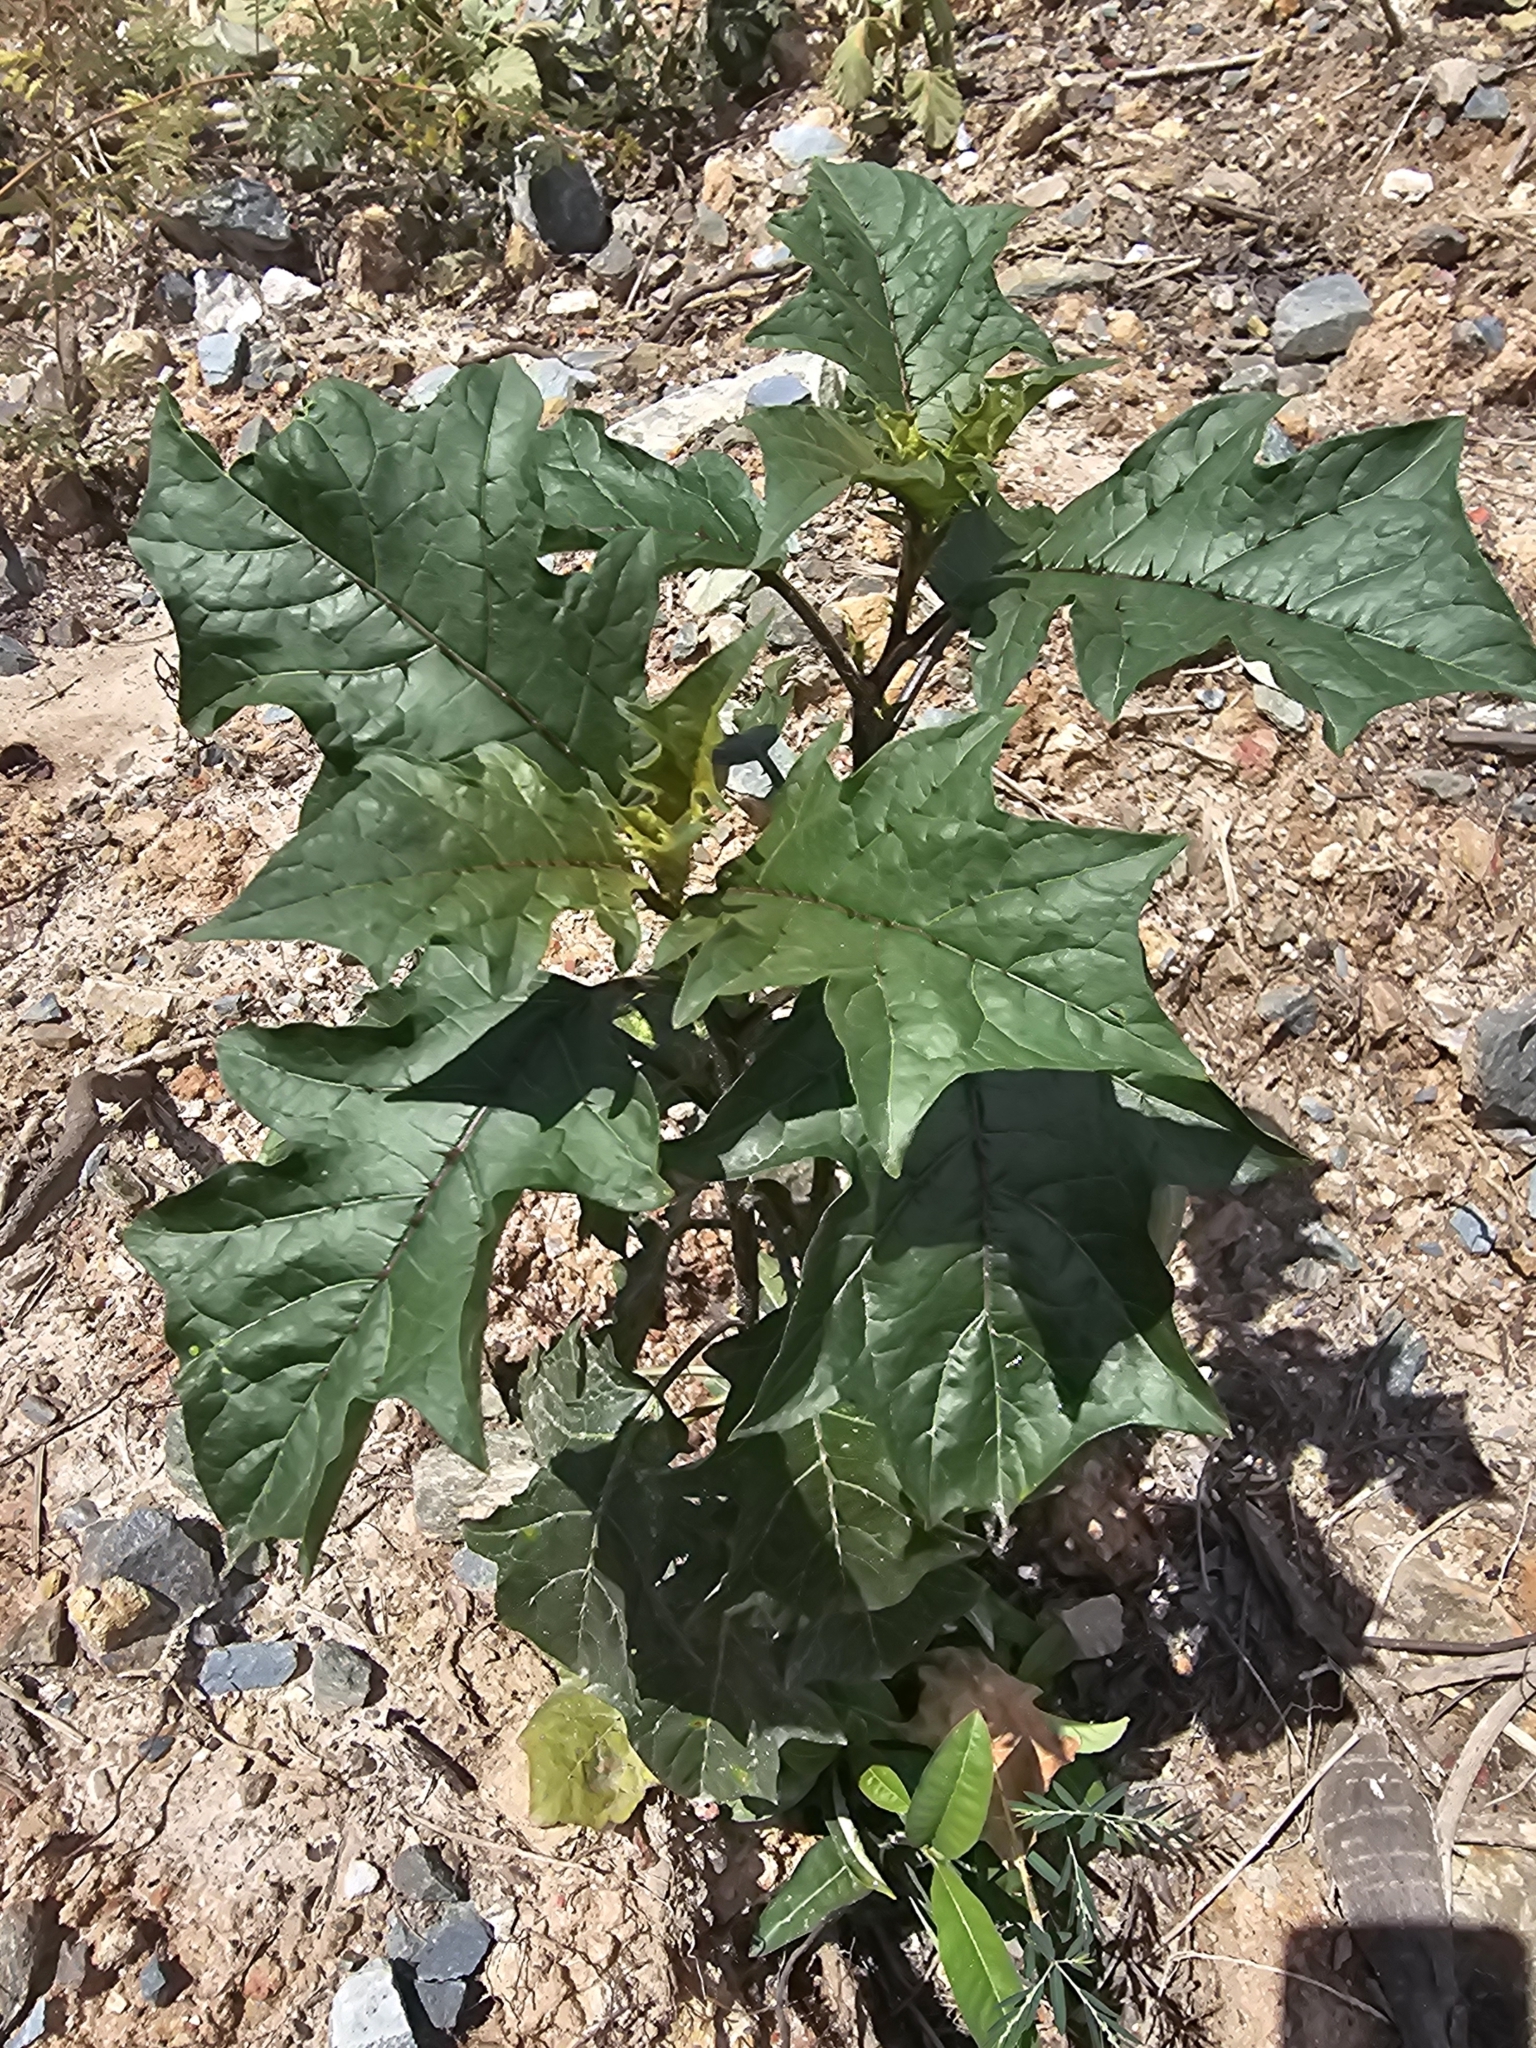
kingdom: Plantae
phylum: Tracheophyta
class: Magnoliopsida
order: Solanales
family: Solanaceae
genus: Solanum
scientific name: Solanum
